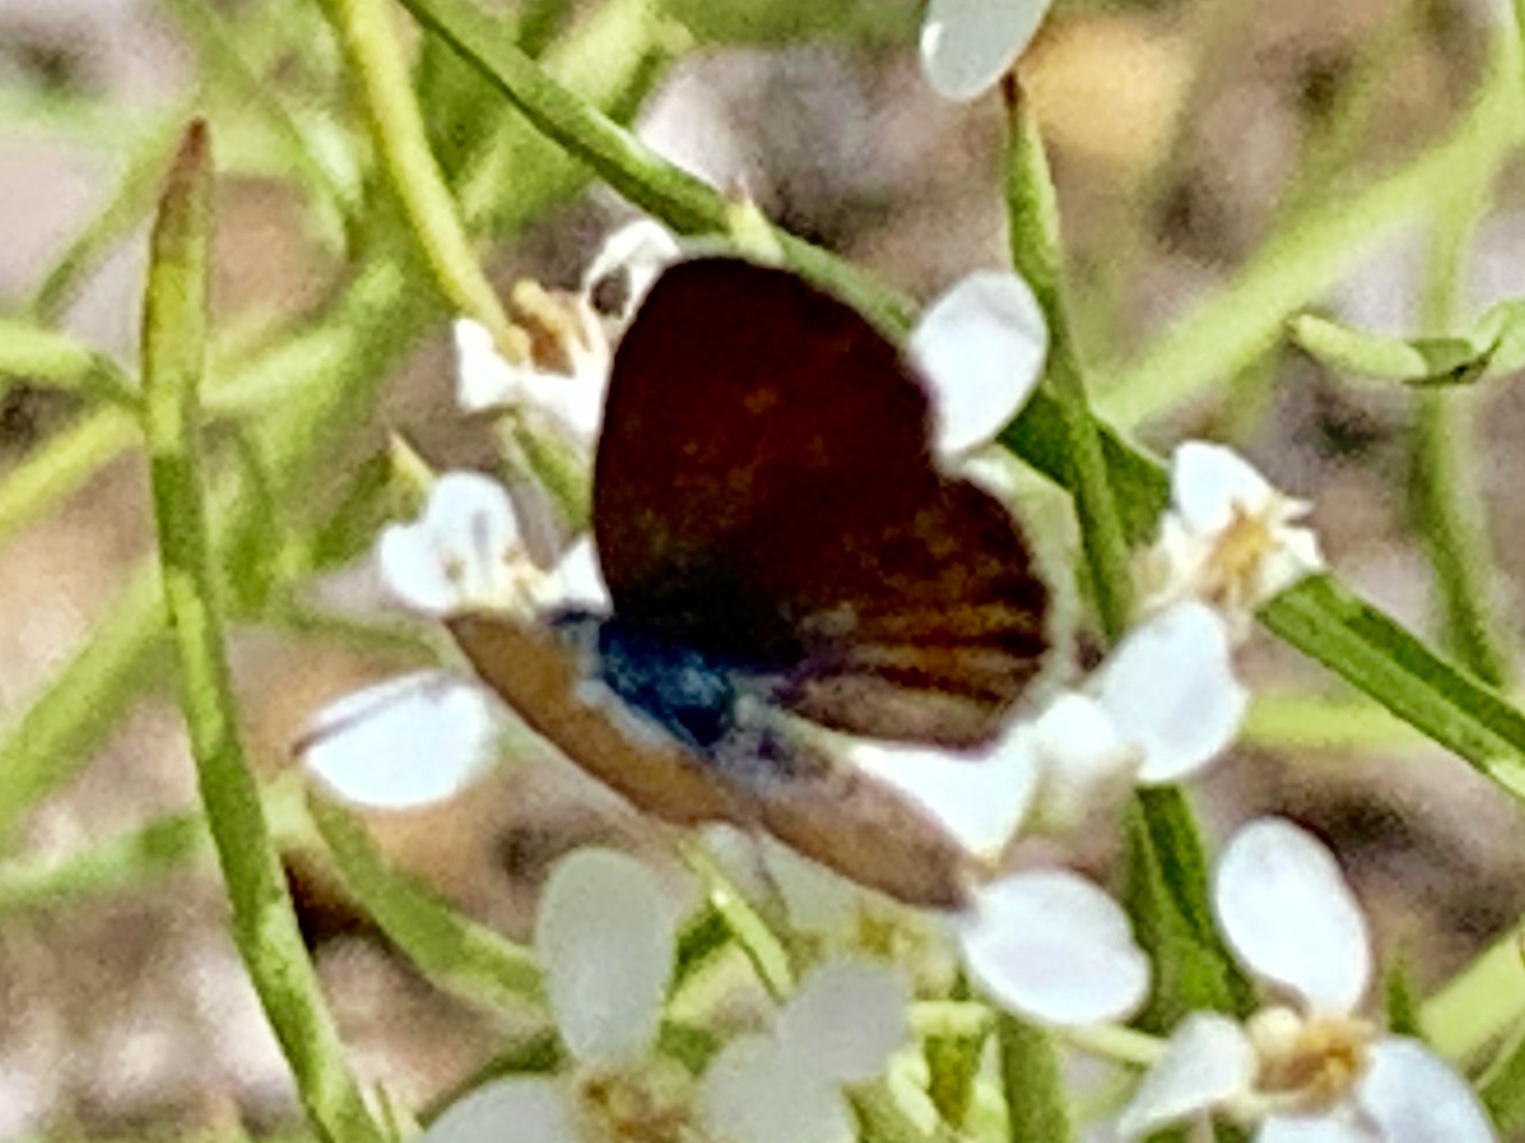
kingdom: Animalia
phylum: Arthropoda
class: Insecta
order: Lepidoptera
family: Lycaenidae
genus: Brephidium
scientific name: Brephidium exilis
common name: Pygmy blue
